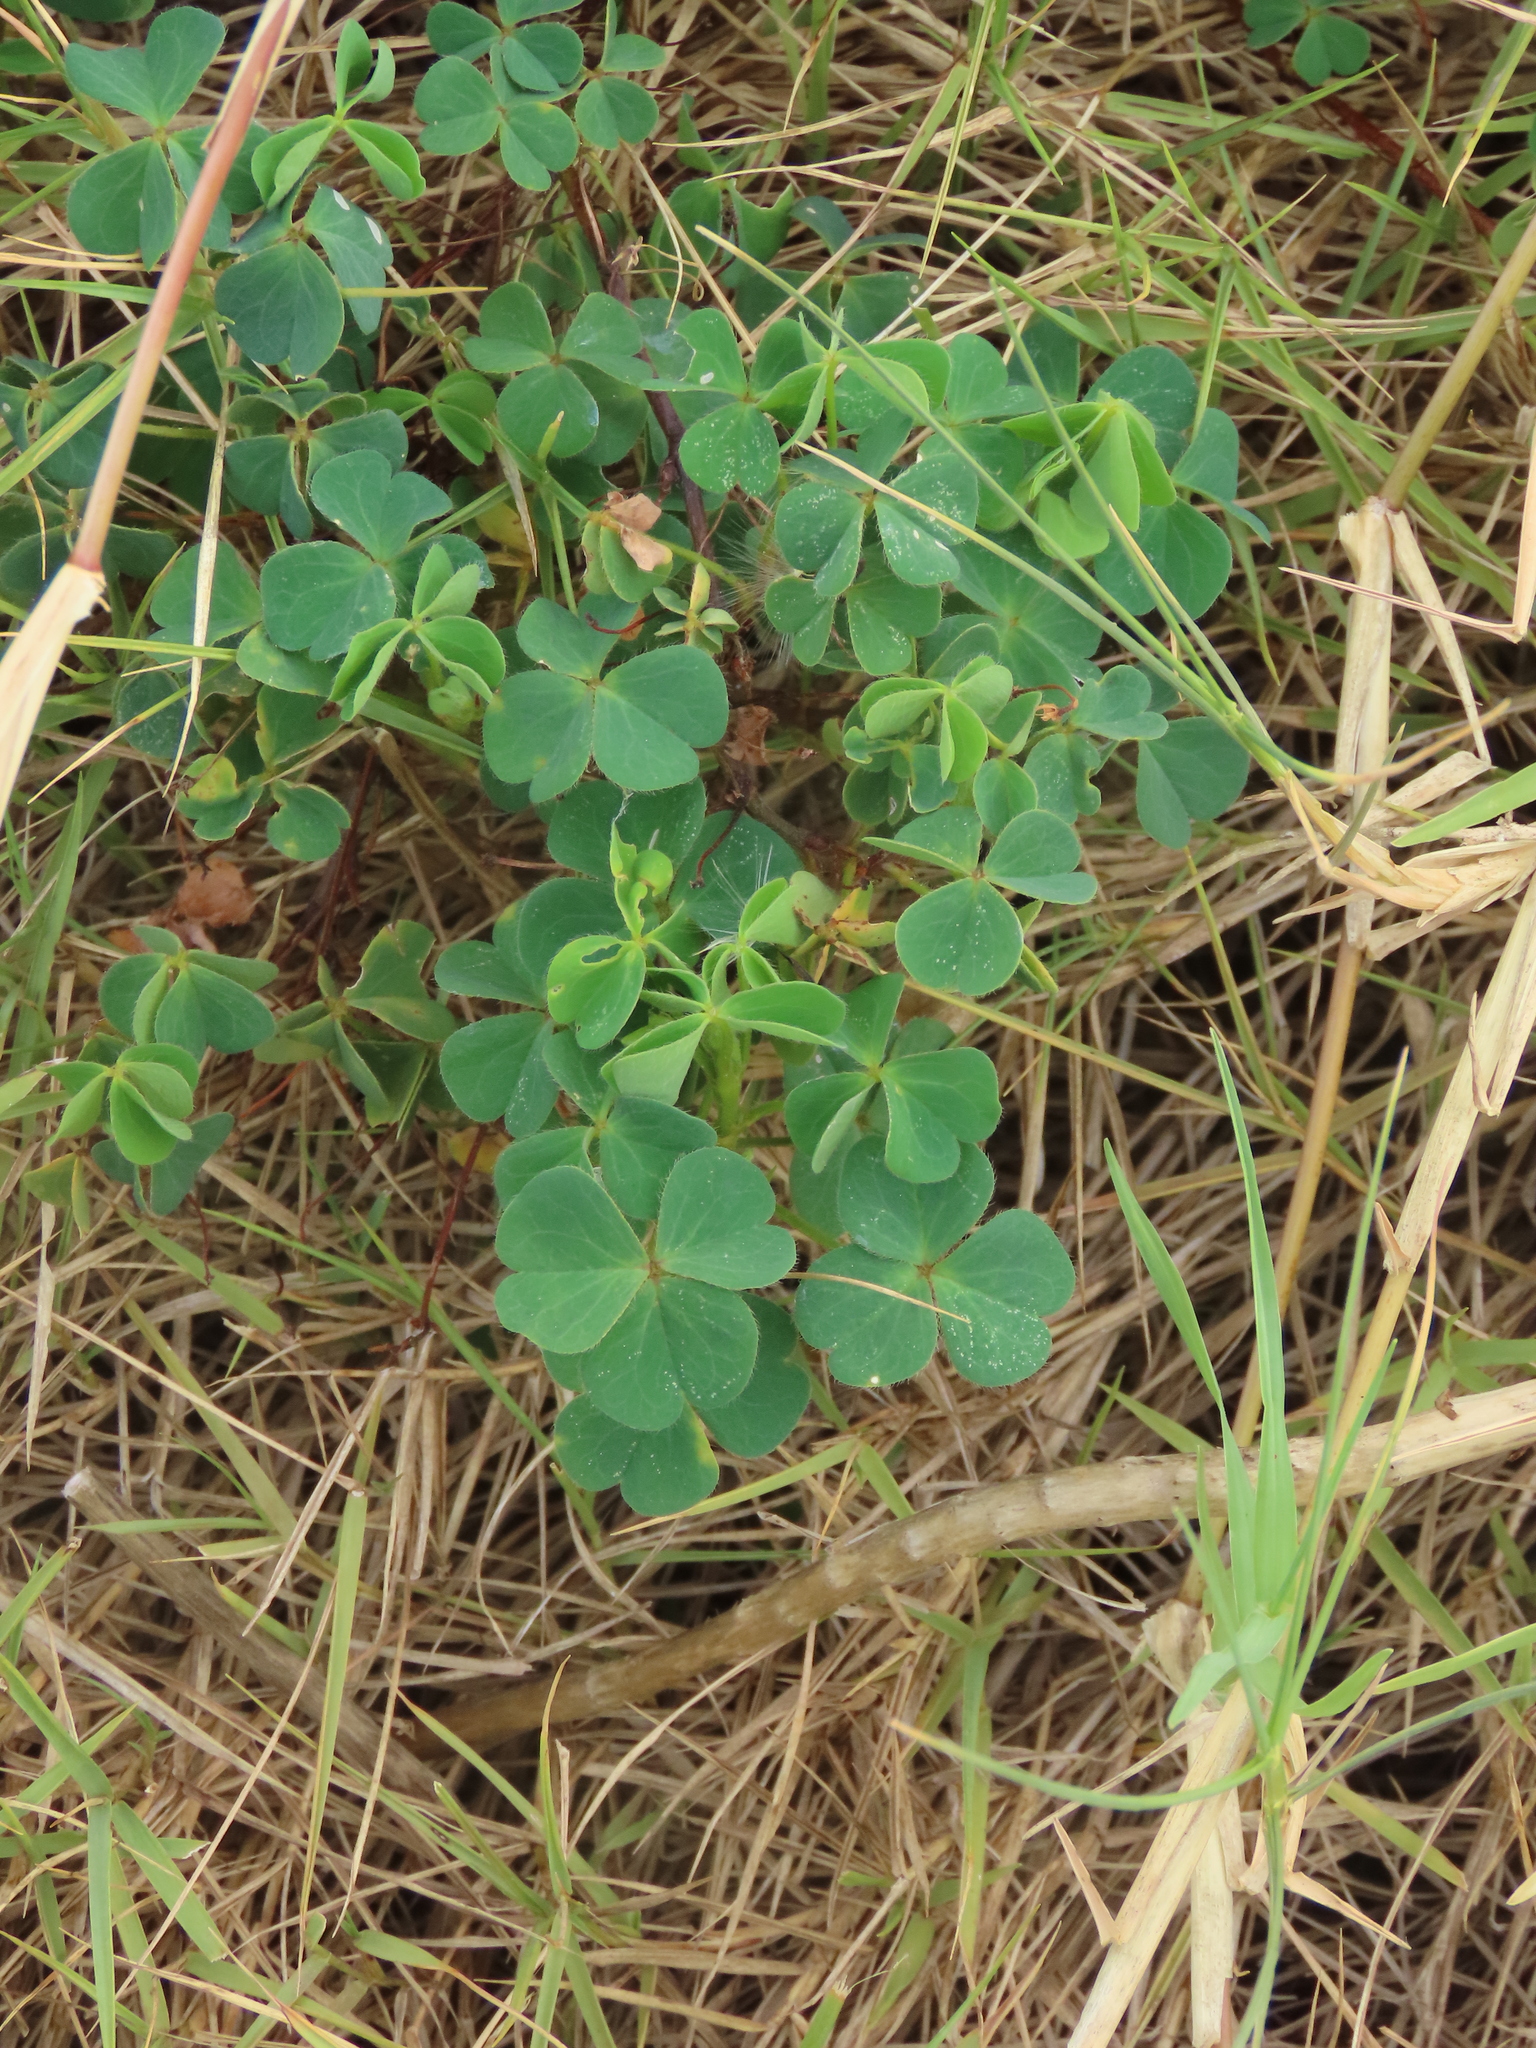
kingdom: Plantae
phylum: Tracheophyta
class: Magnoliopsida
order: Oxalidales
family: Oxalidaceae
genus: Oxalis
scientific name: Oxalis corniculata
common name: Procumbent yellow-sorrel
